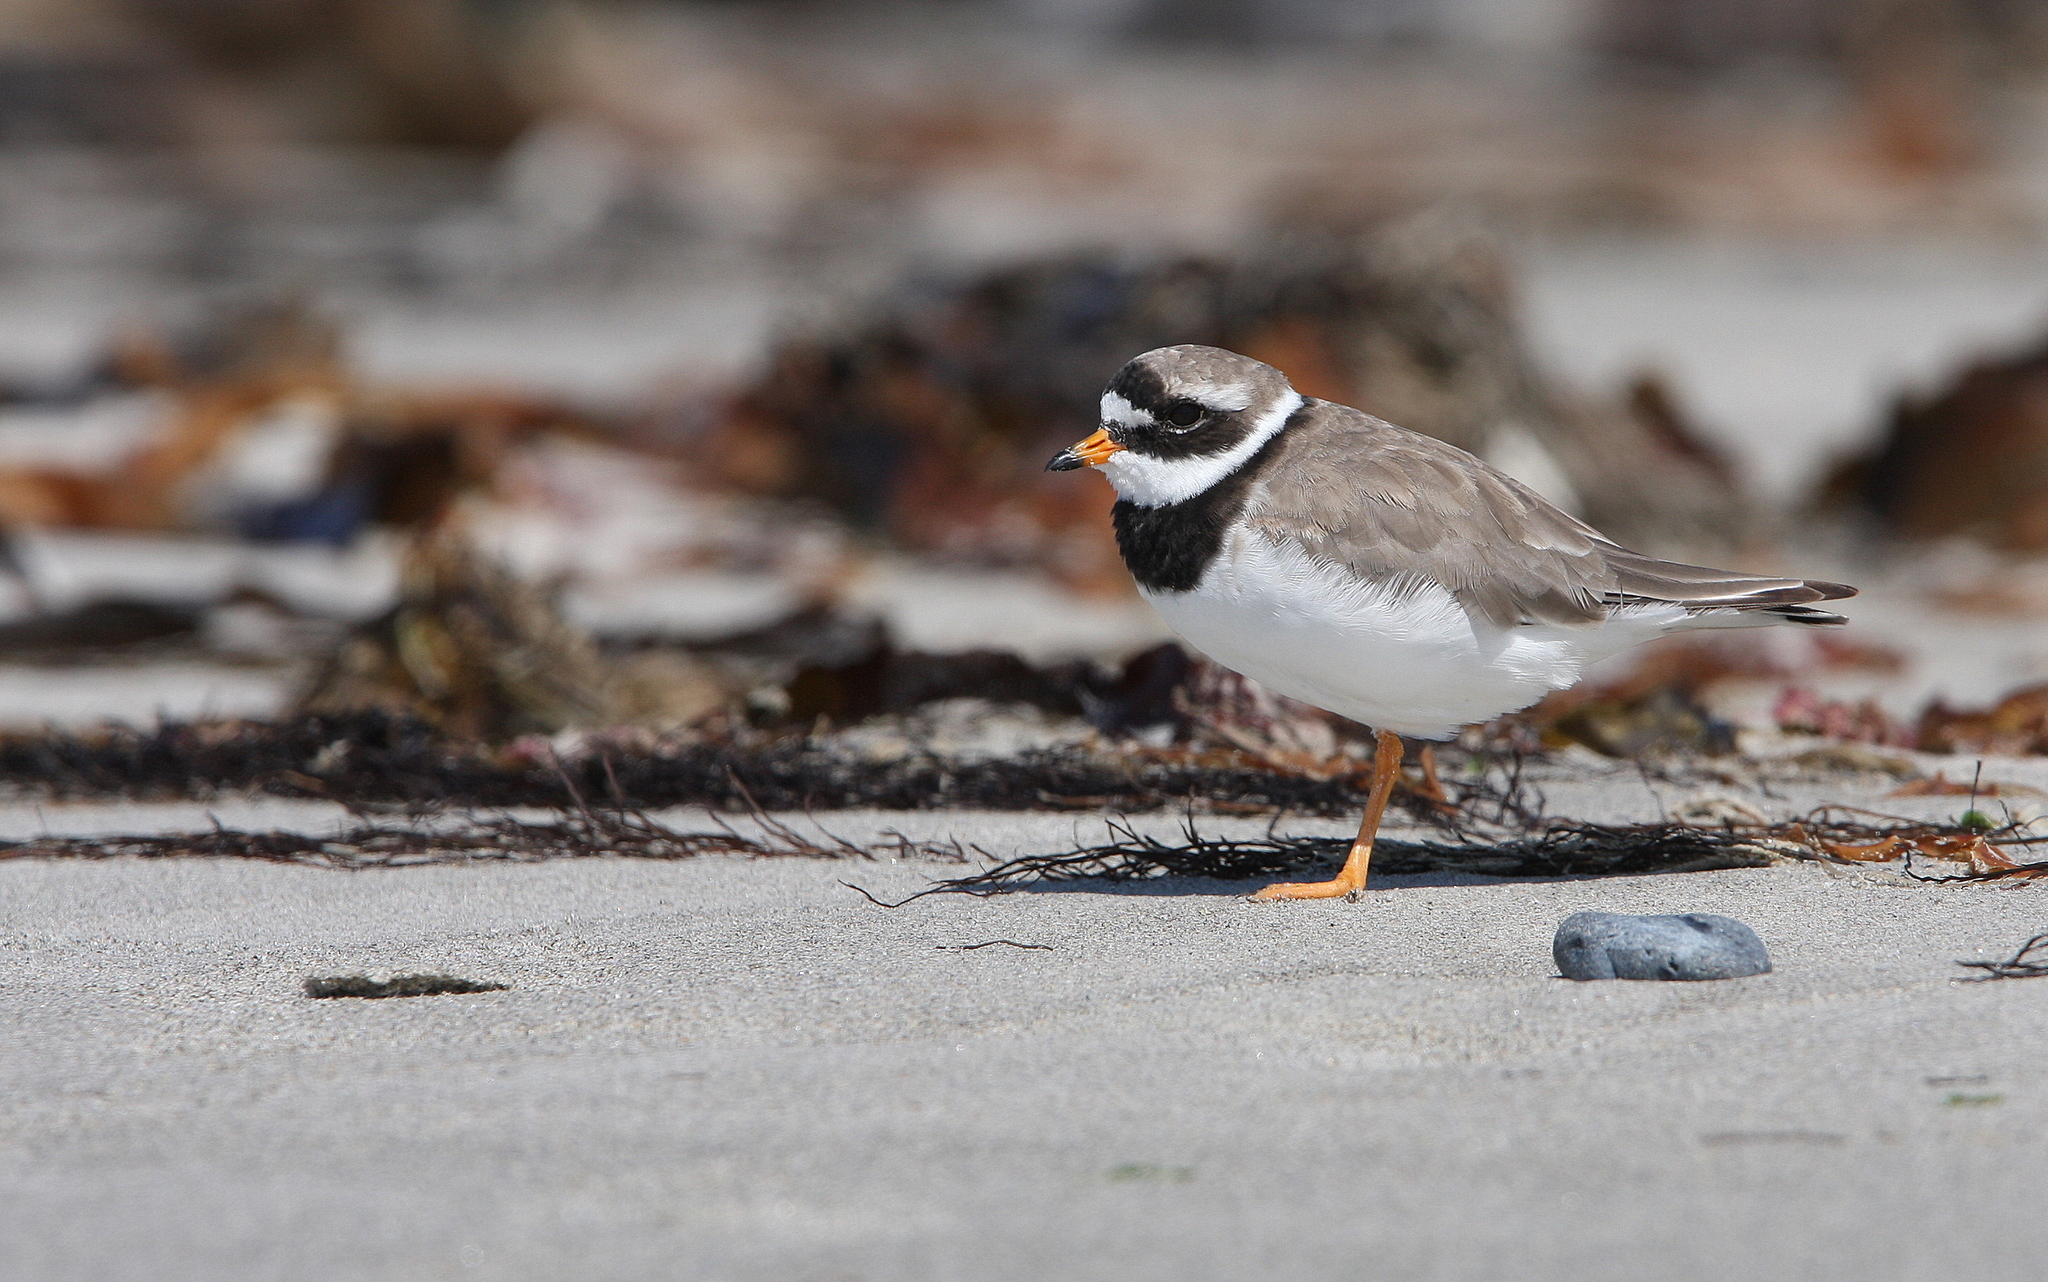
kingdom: Animalia
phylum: Chordata
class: Aves
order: Charadriiformes
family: Charadriidae
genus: Charadrius
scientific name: Charadrius hiaticula
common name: Common ringed plover
